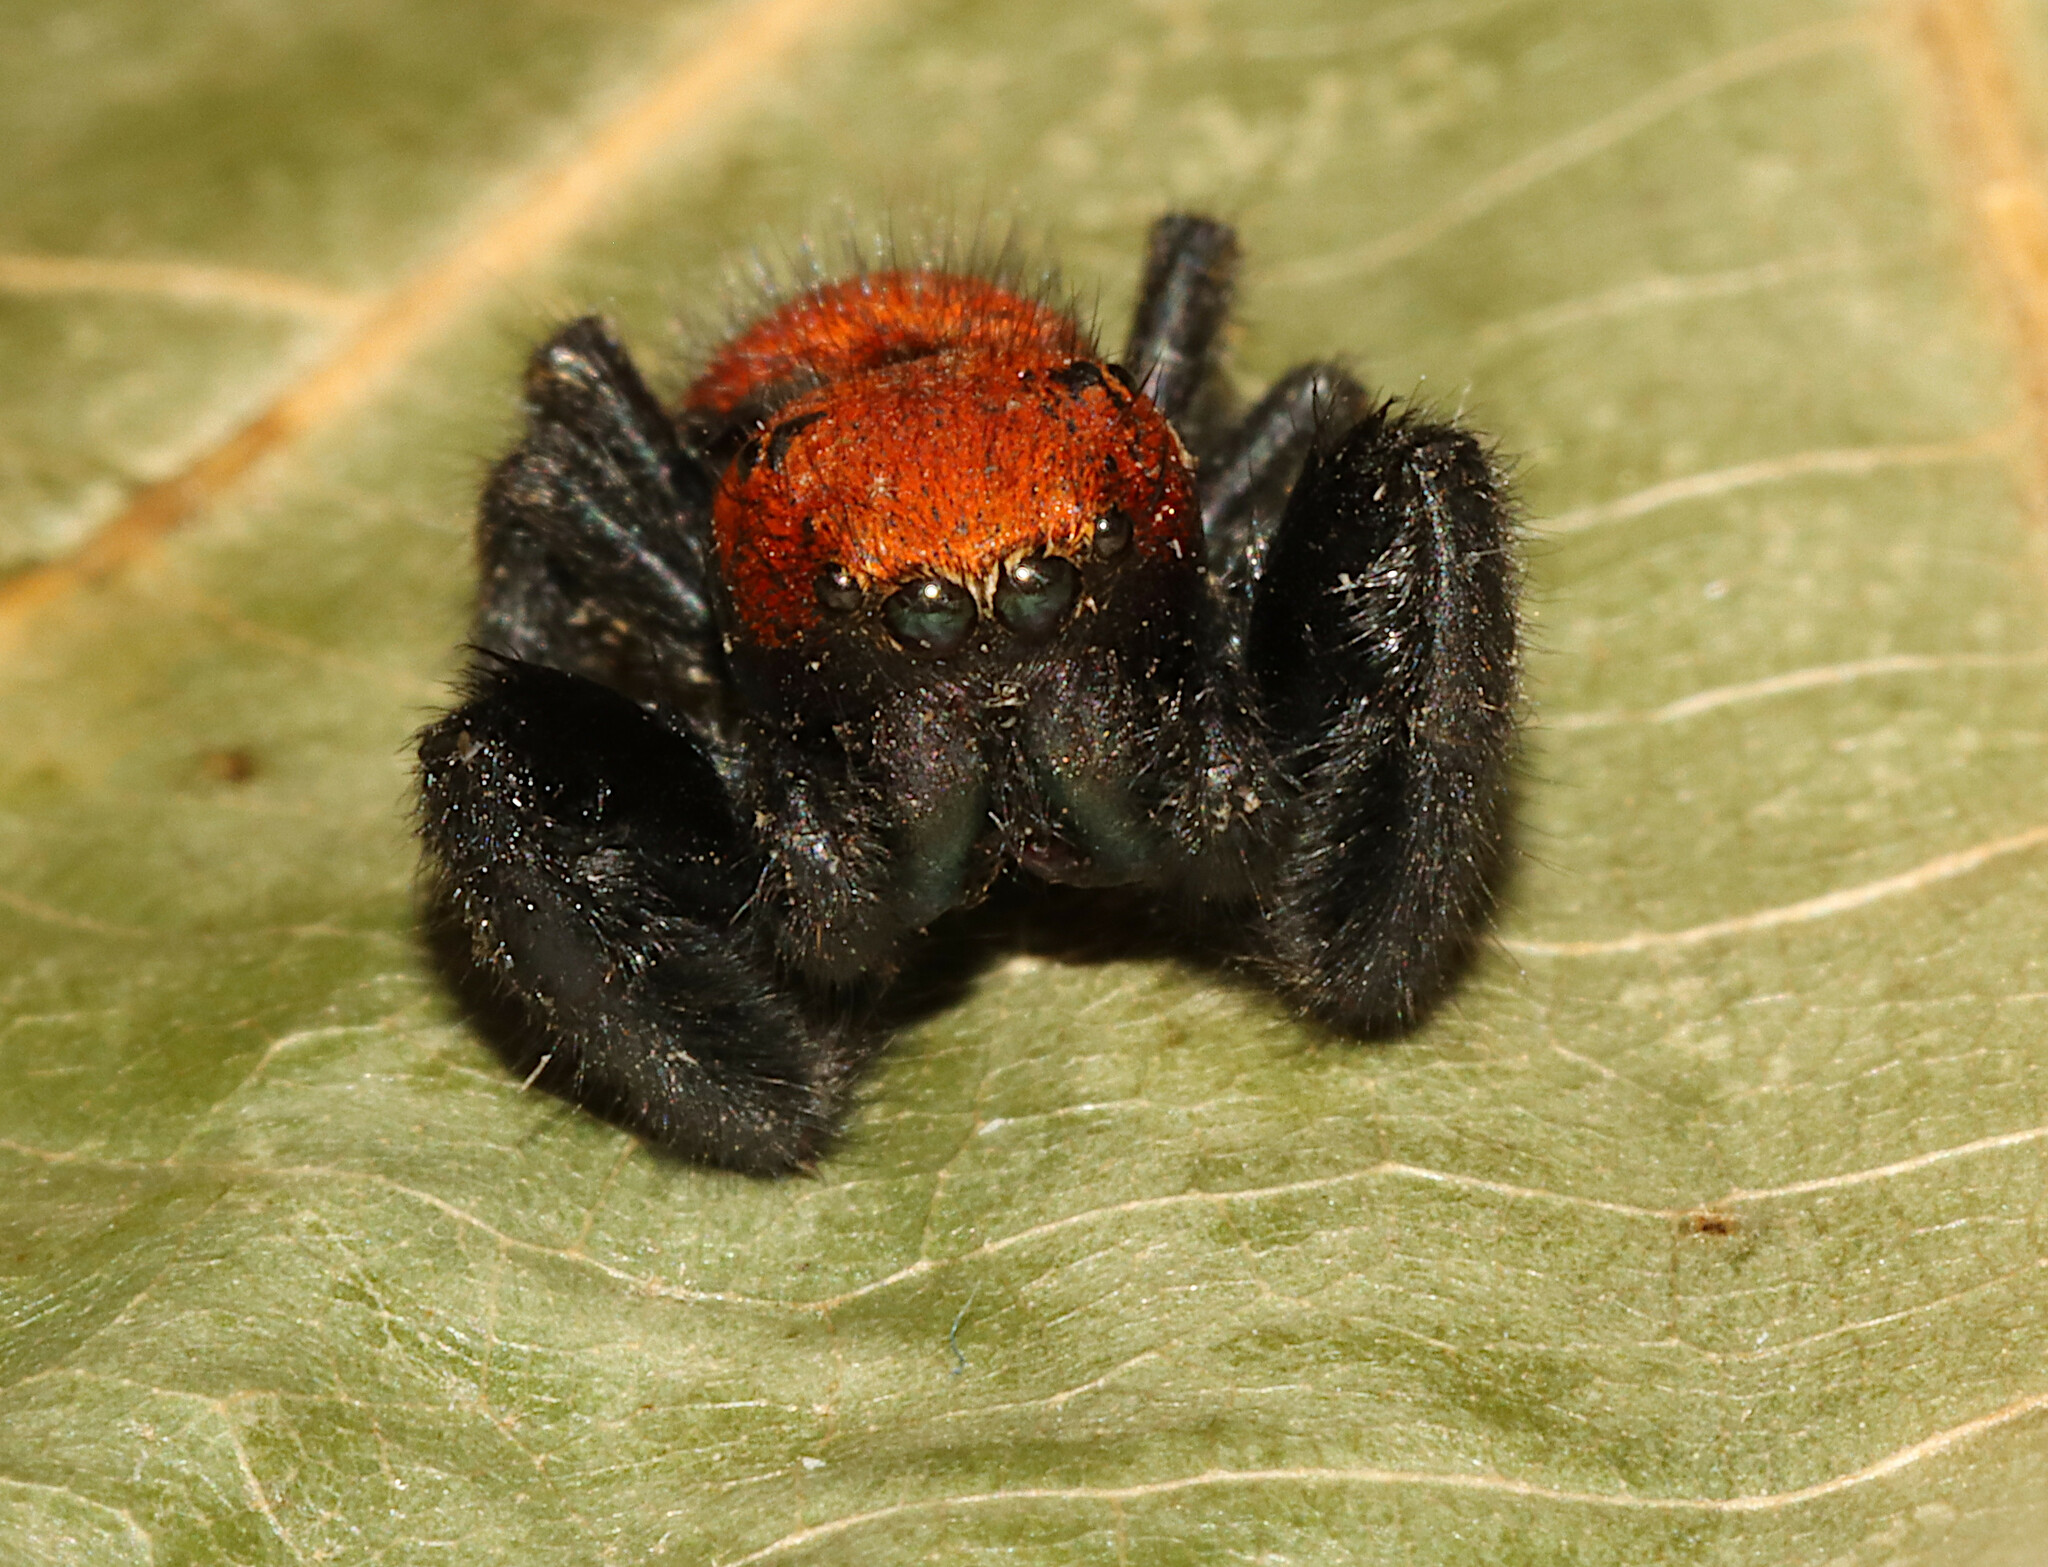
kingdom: Animalia
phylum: Arthropoda
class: Arachnida
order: Araneae
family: Salticidae
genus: Phidippus
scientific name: Phidippus cardinalis
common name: Cardinal jumper
